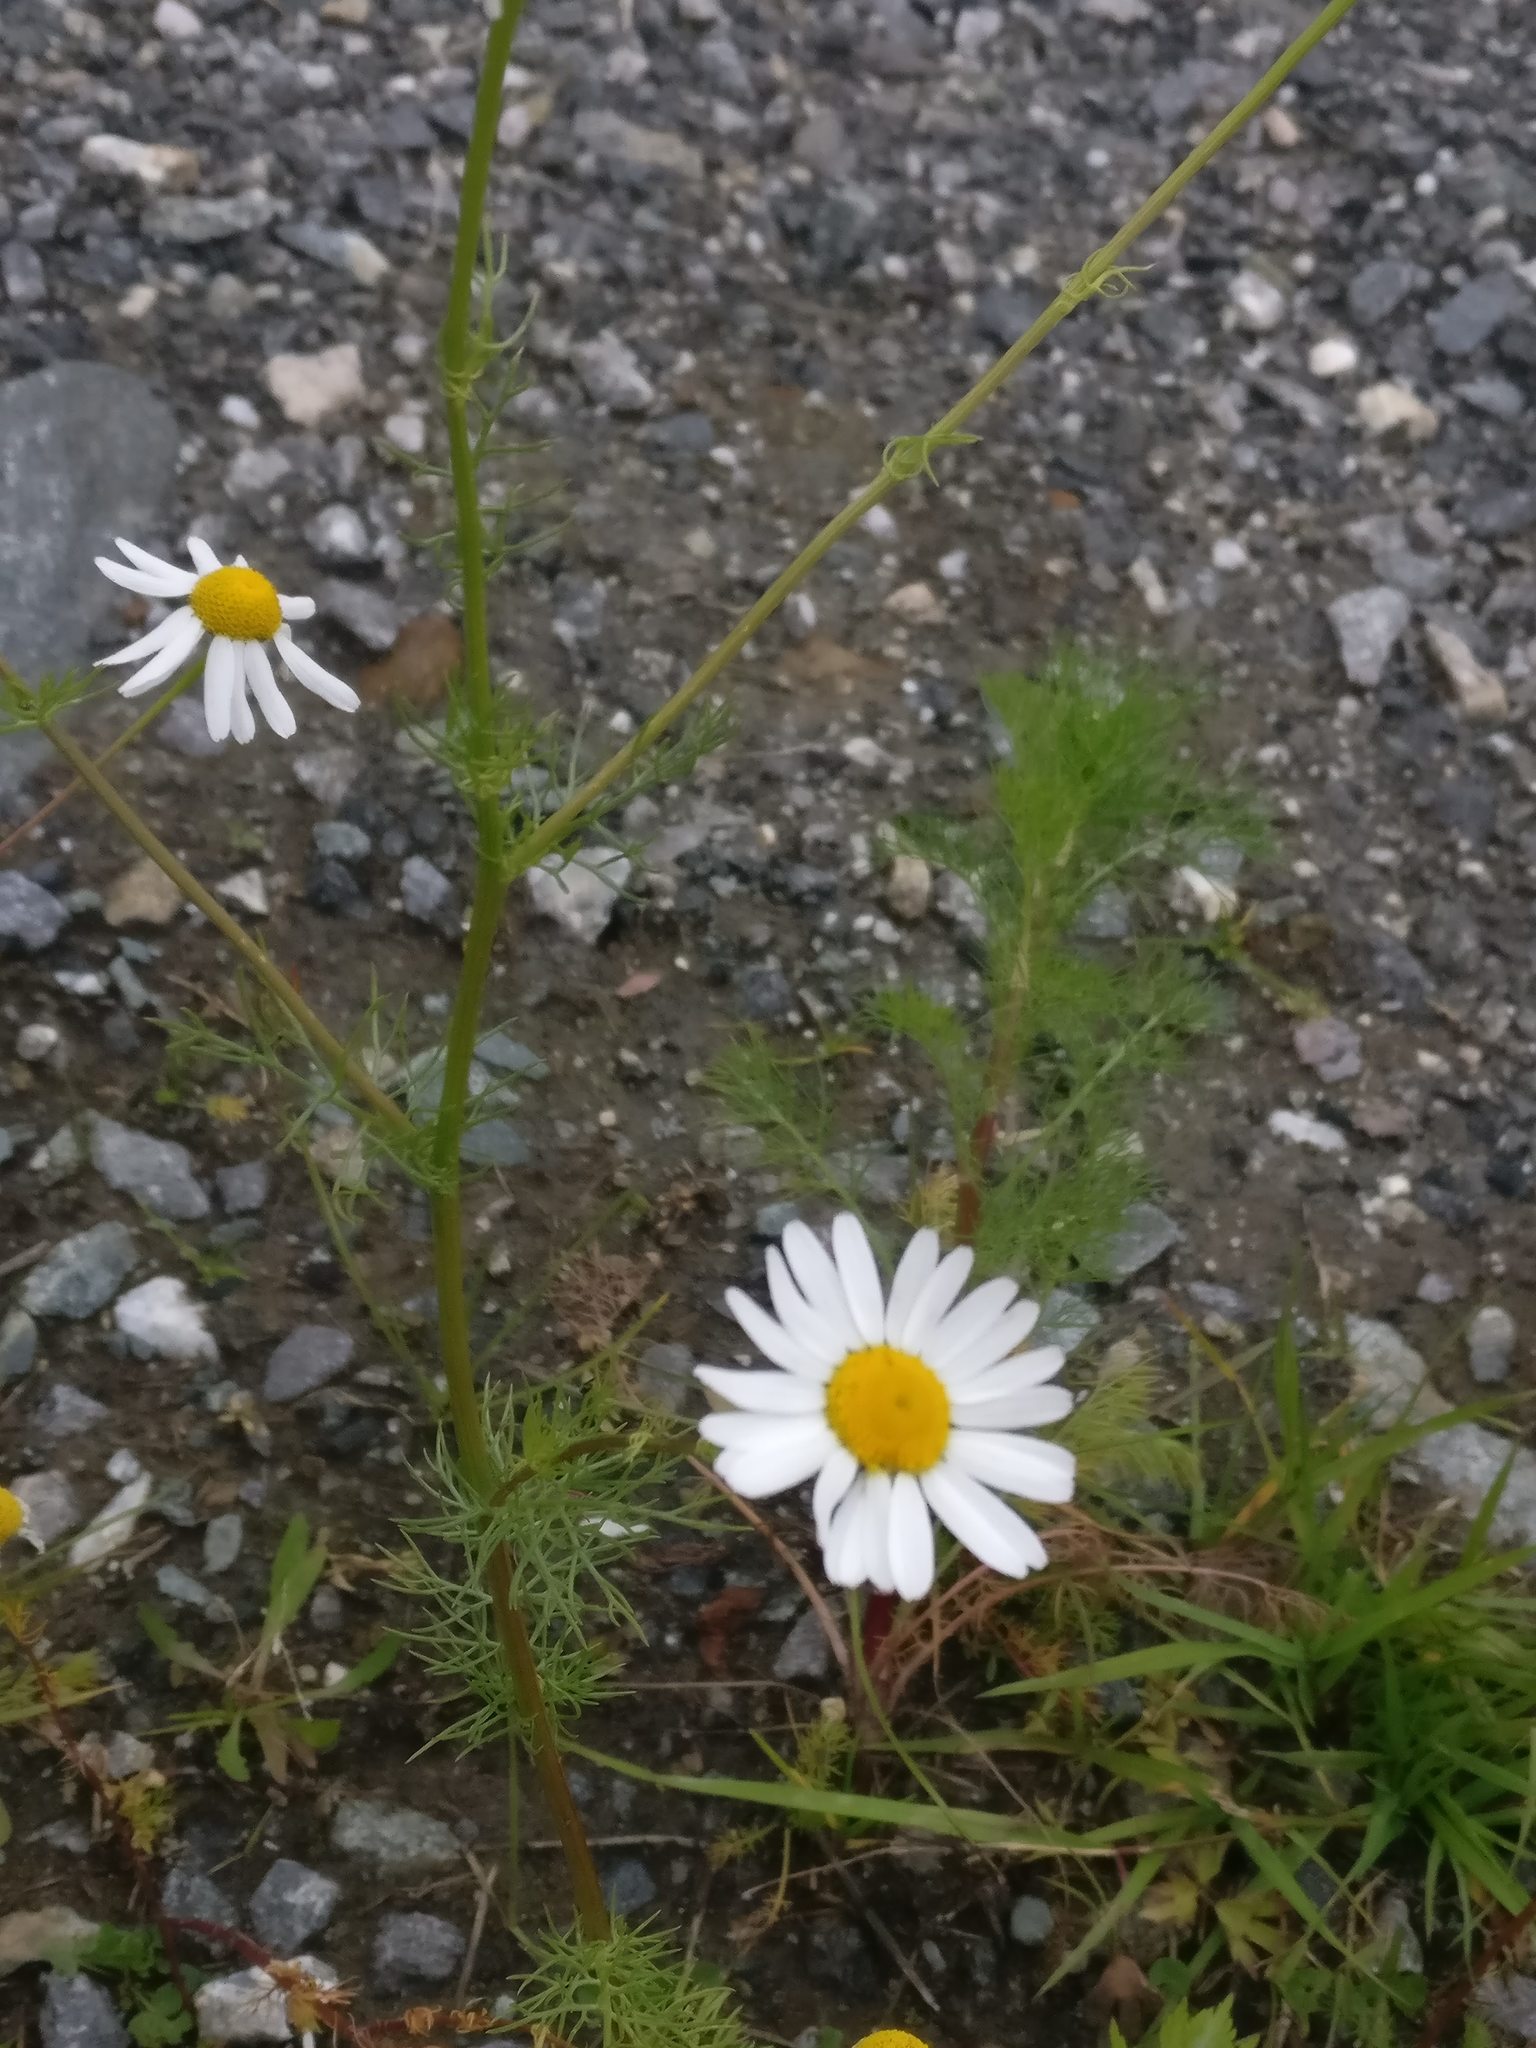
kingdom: Plantae
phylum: Tracheophyta
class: Magnoliopsida
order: Asterales
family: Asteraceae
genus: Tripleurospermum
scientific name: Tripleurospermum inodorum
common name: Scentless mayweed
